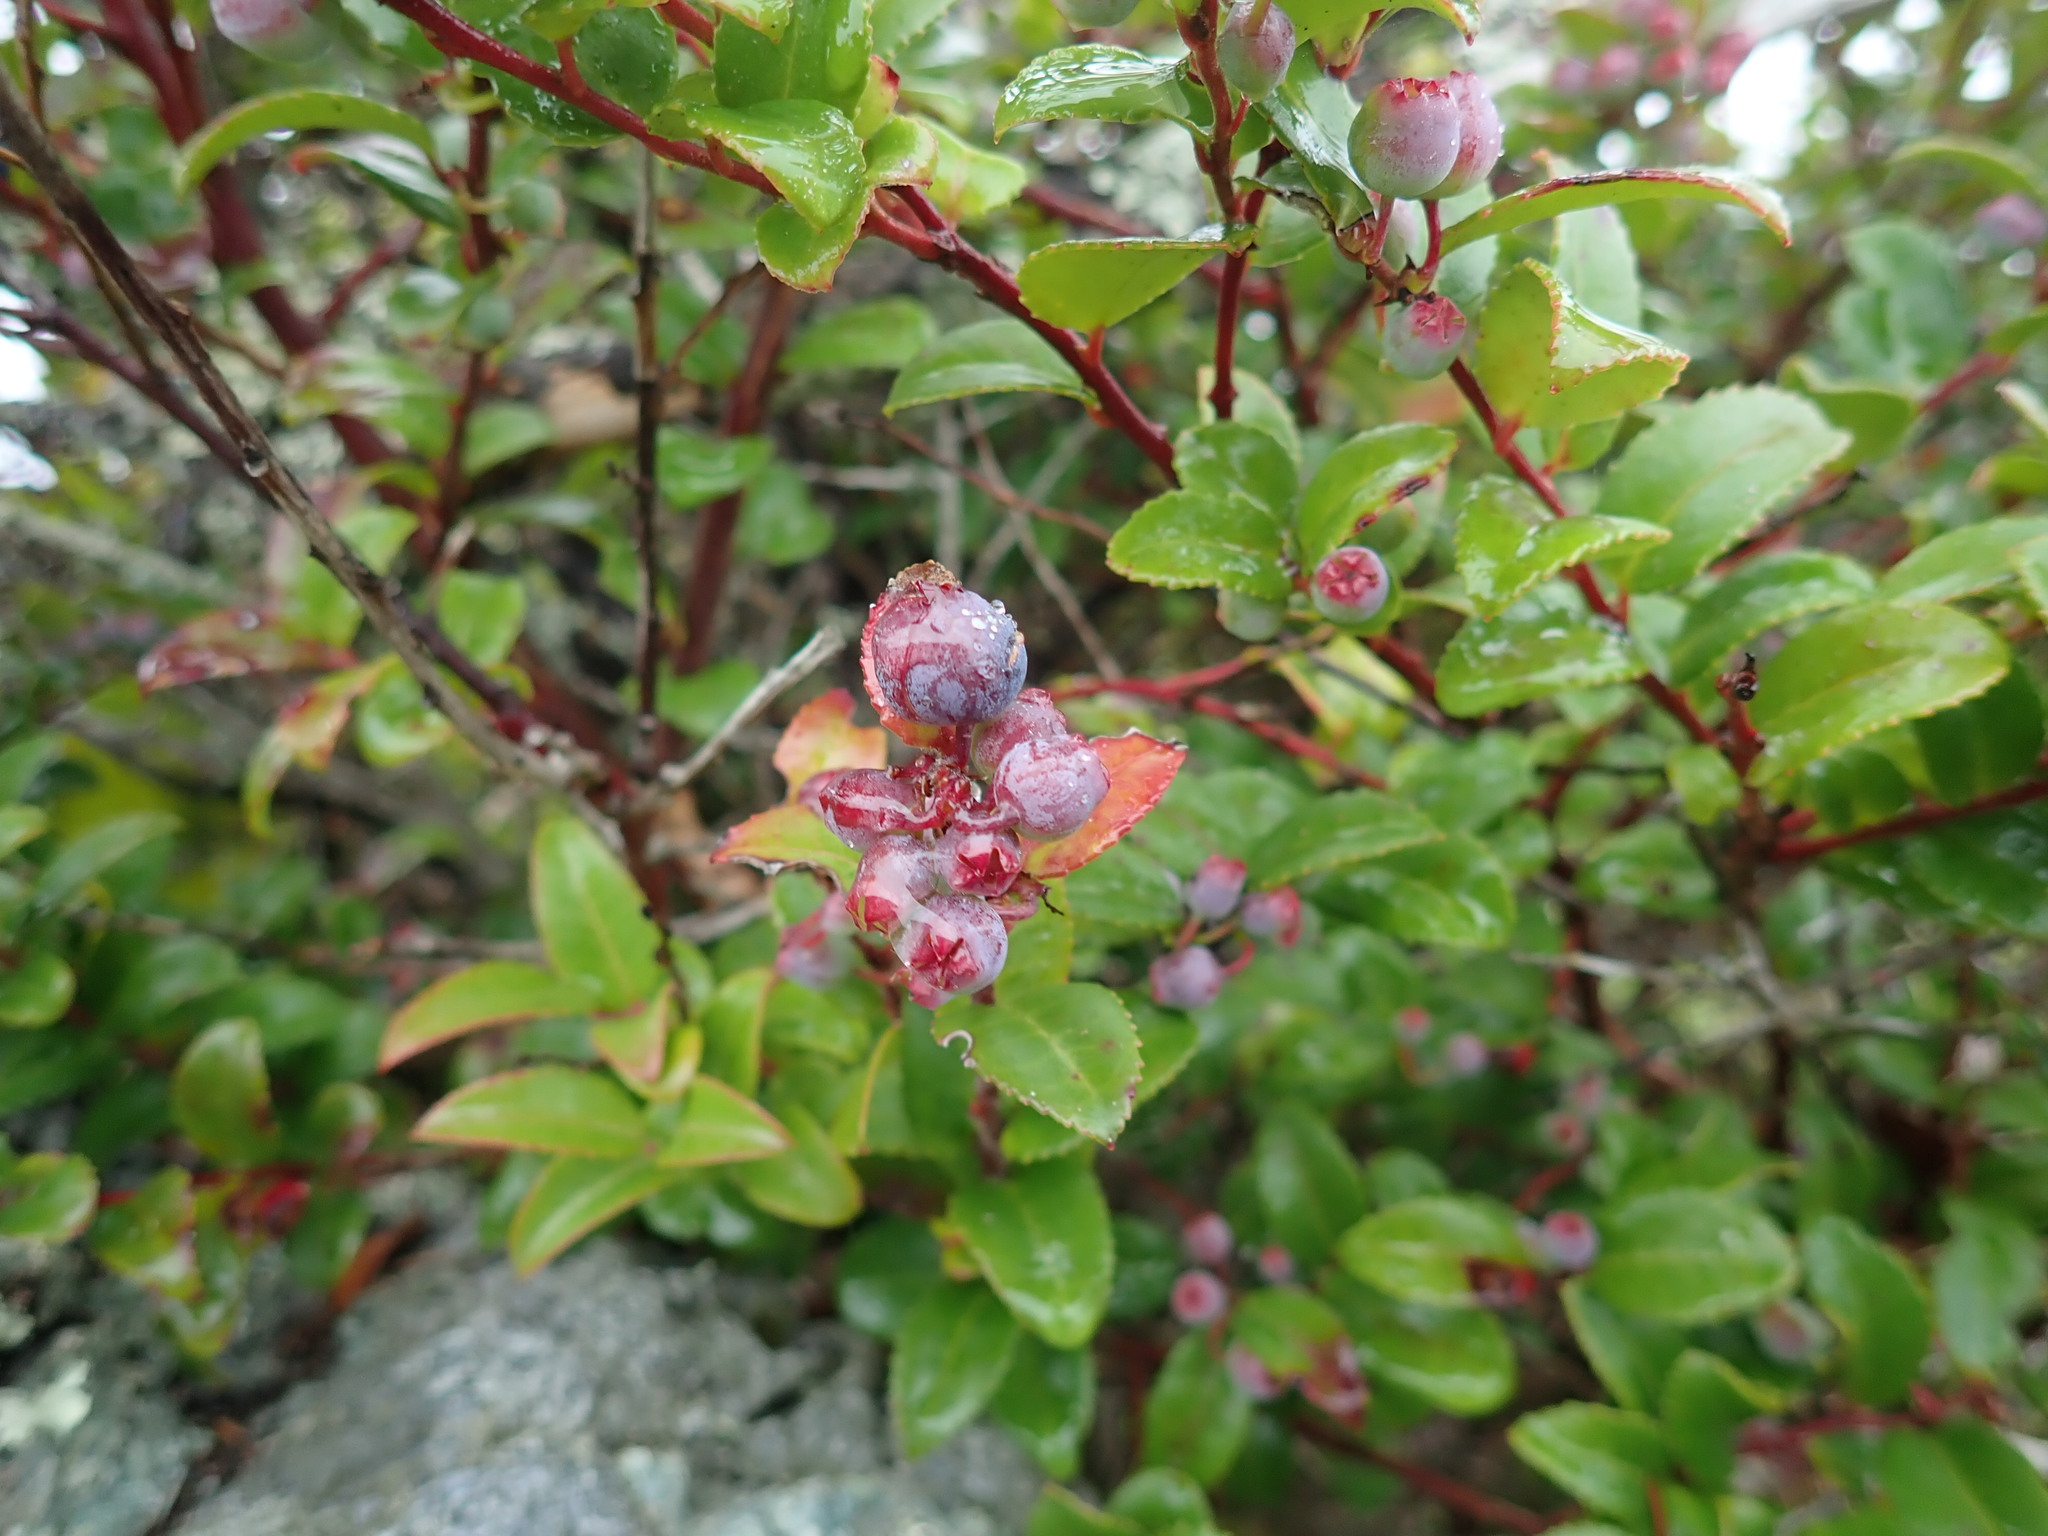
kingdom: Plantae
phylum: Tracheophyta
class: Magnoliopsida
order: Ericales
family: Ericaceae
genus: Vaccinium
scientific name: Vaccinium ovatum
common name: California-huckleberry
